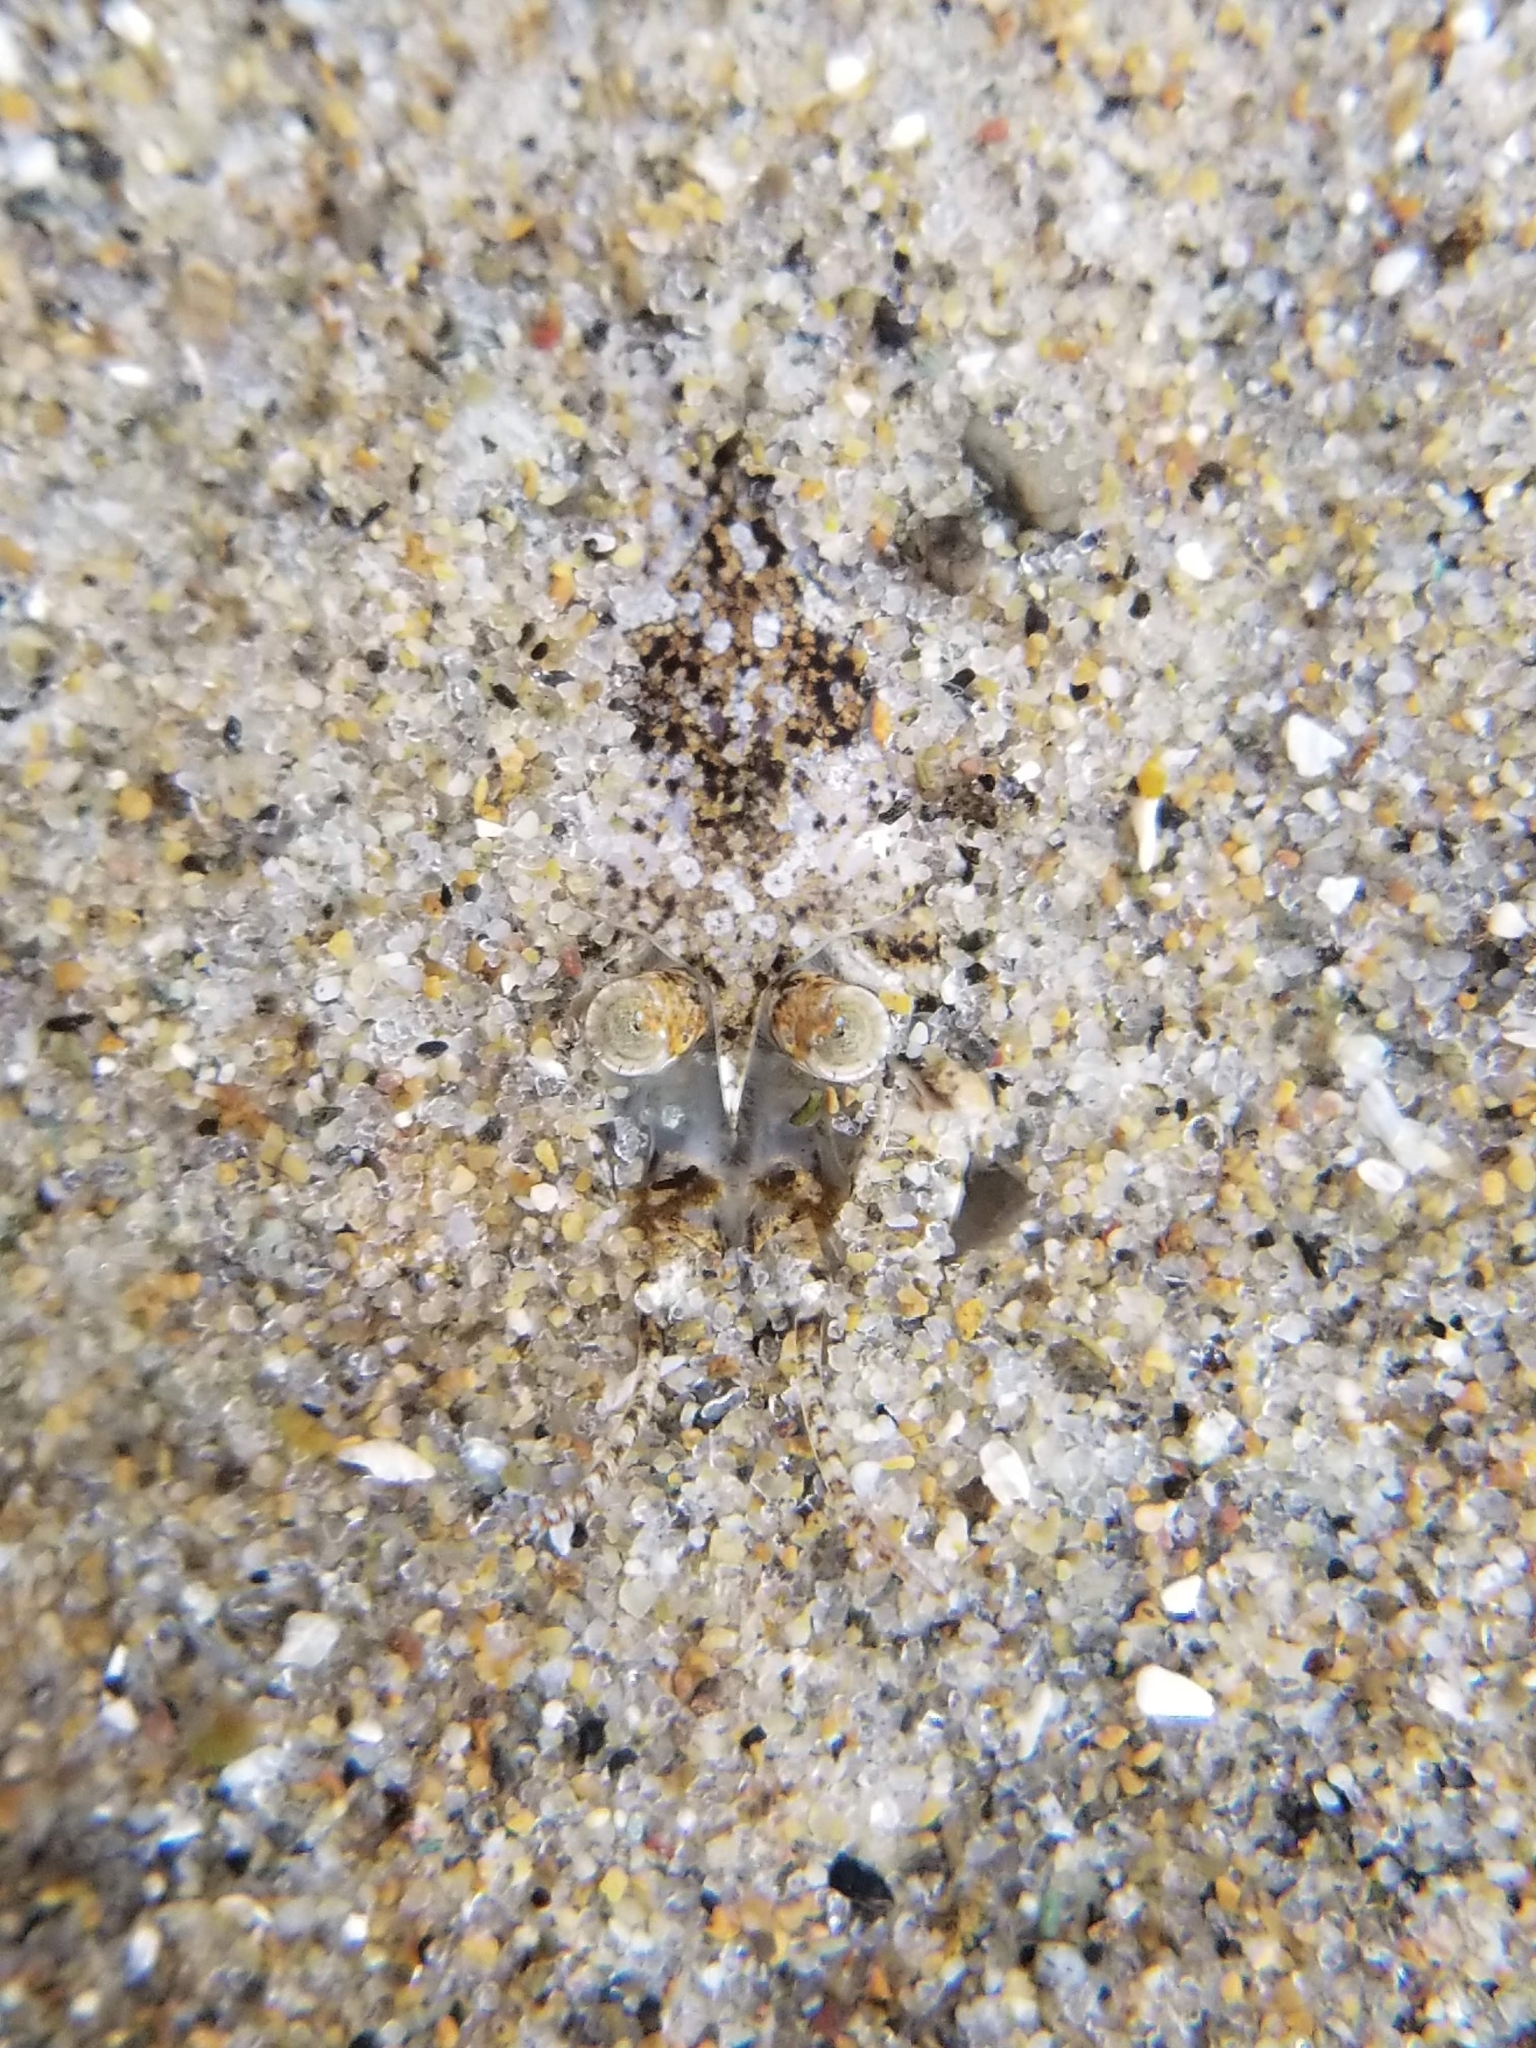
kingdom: Animalia
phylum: Arthropoda
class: Malacostraca
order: Decapoda
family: Crangonidae
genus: Lissocrangon
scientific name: Lissocrangon stylirostris
